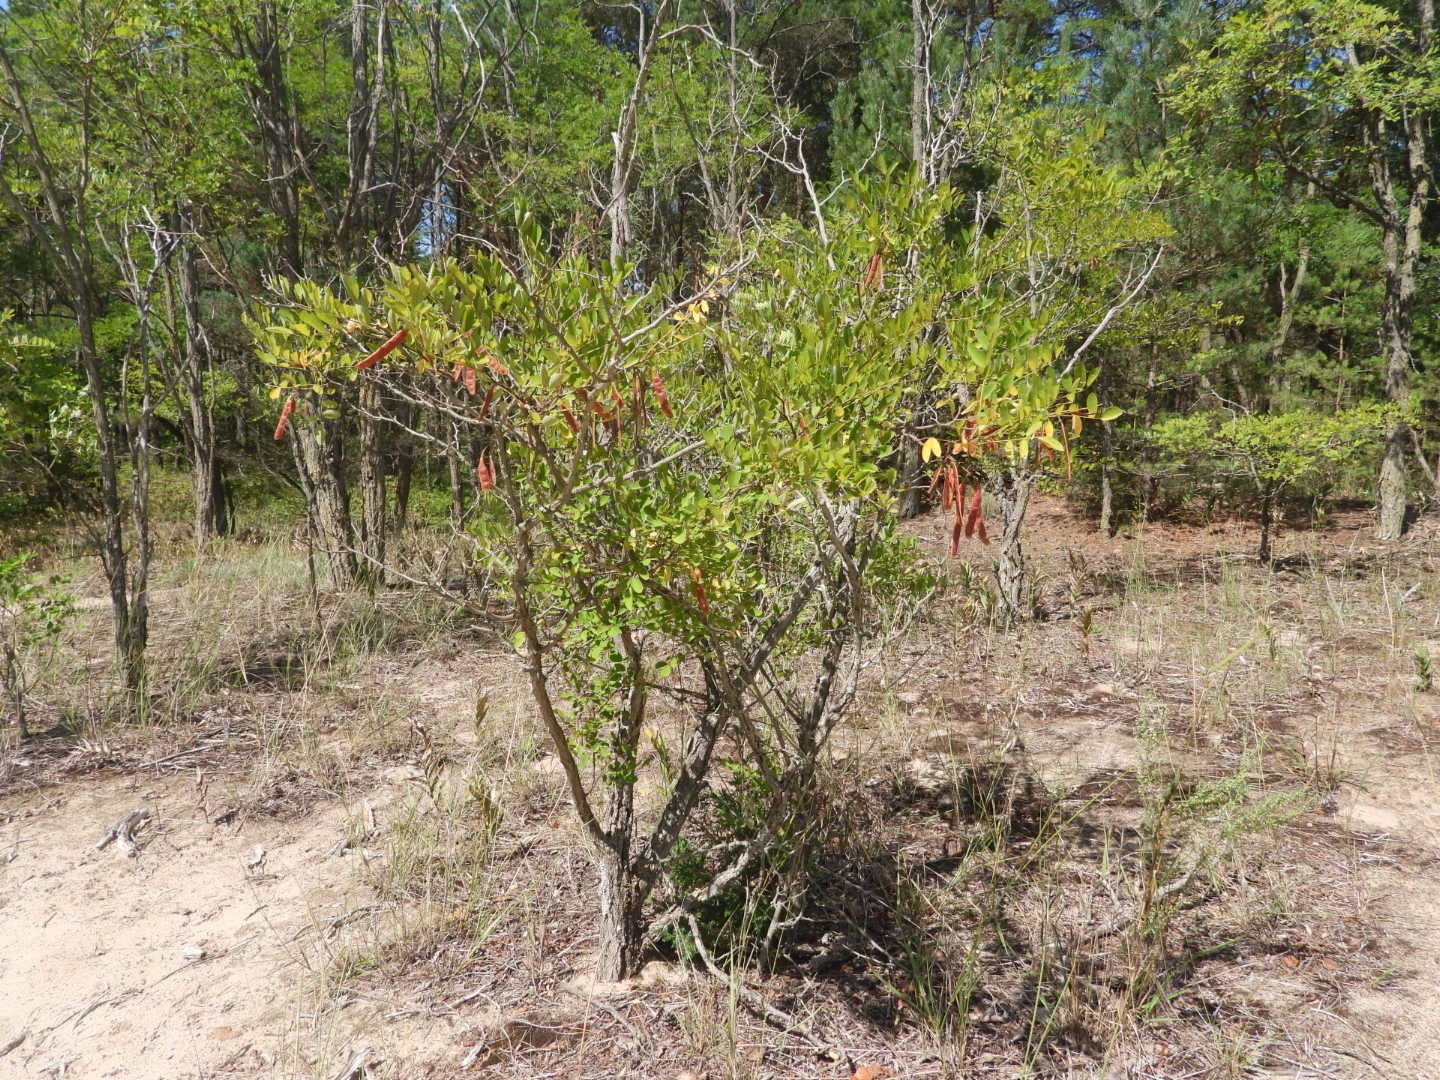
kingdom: Plantae
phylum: Tracheophyta
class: Magnoliopsida
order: Fabales
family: Fabaceae
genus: Robinia
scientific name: Robinia pseudoacacia
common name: Black locust
